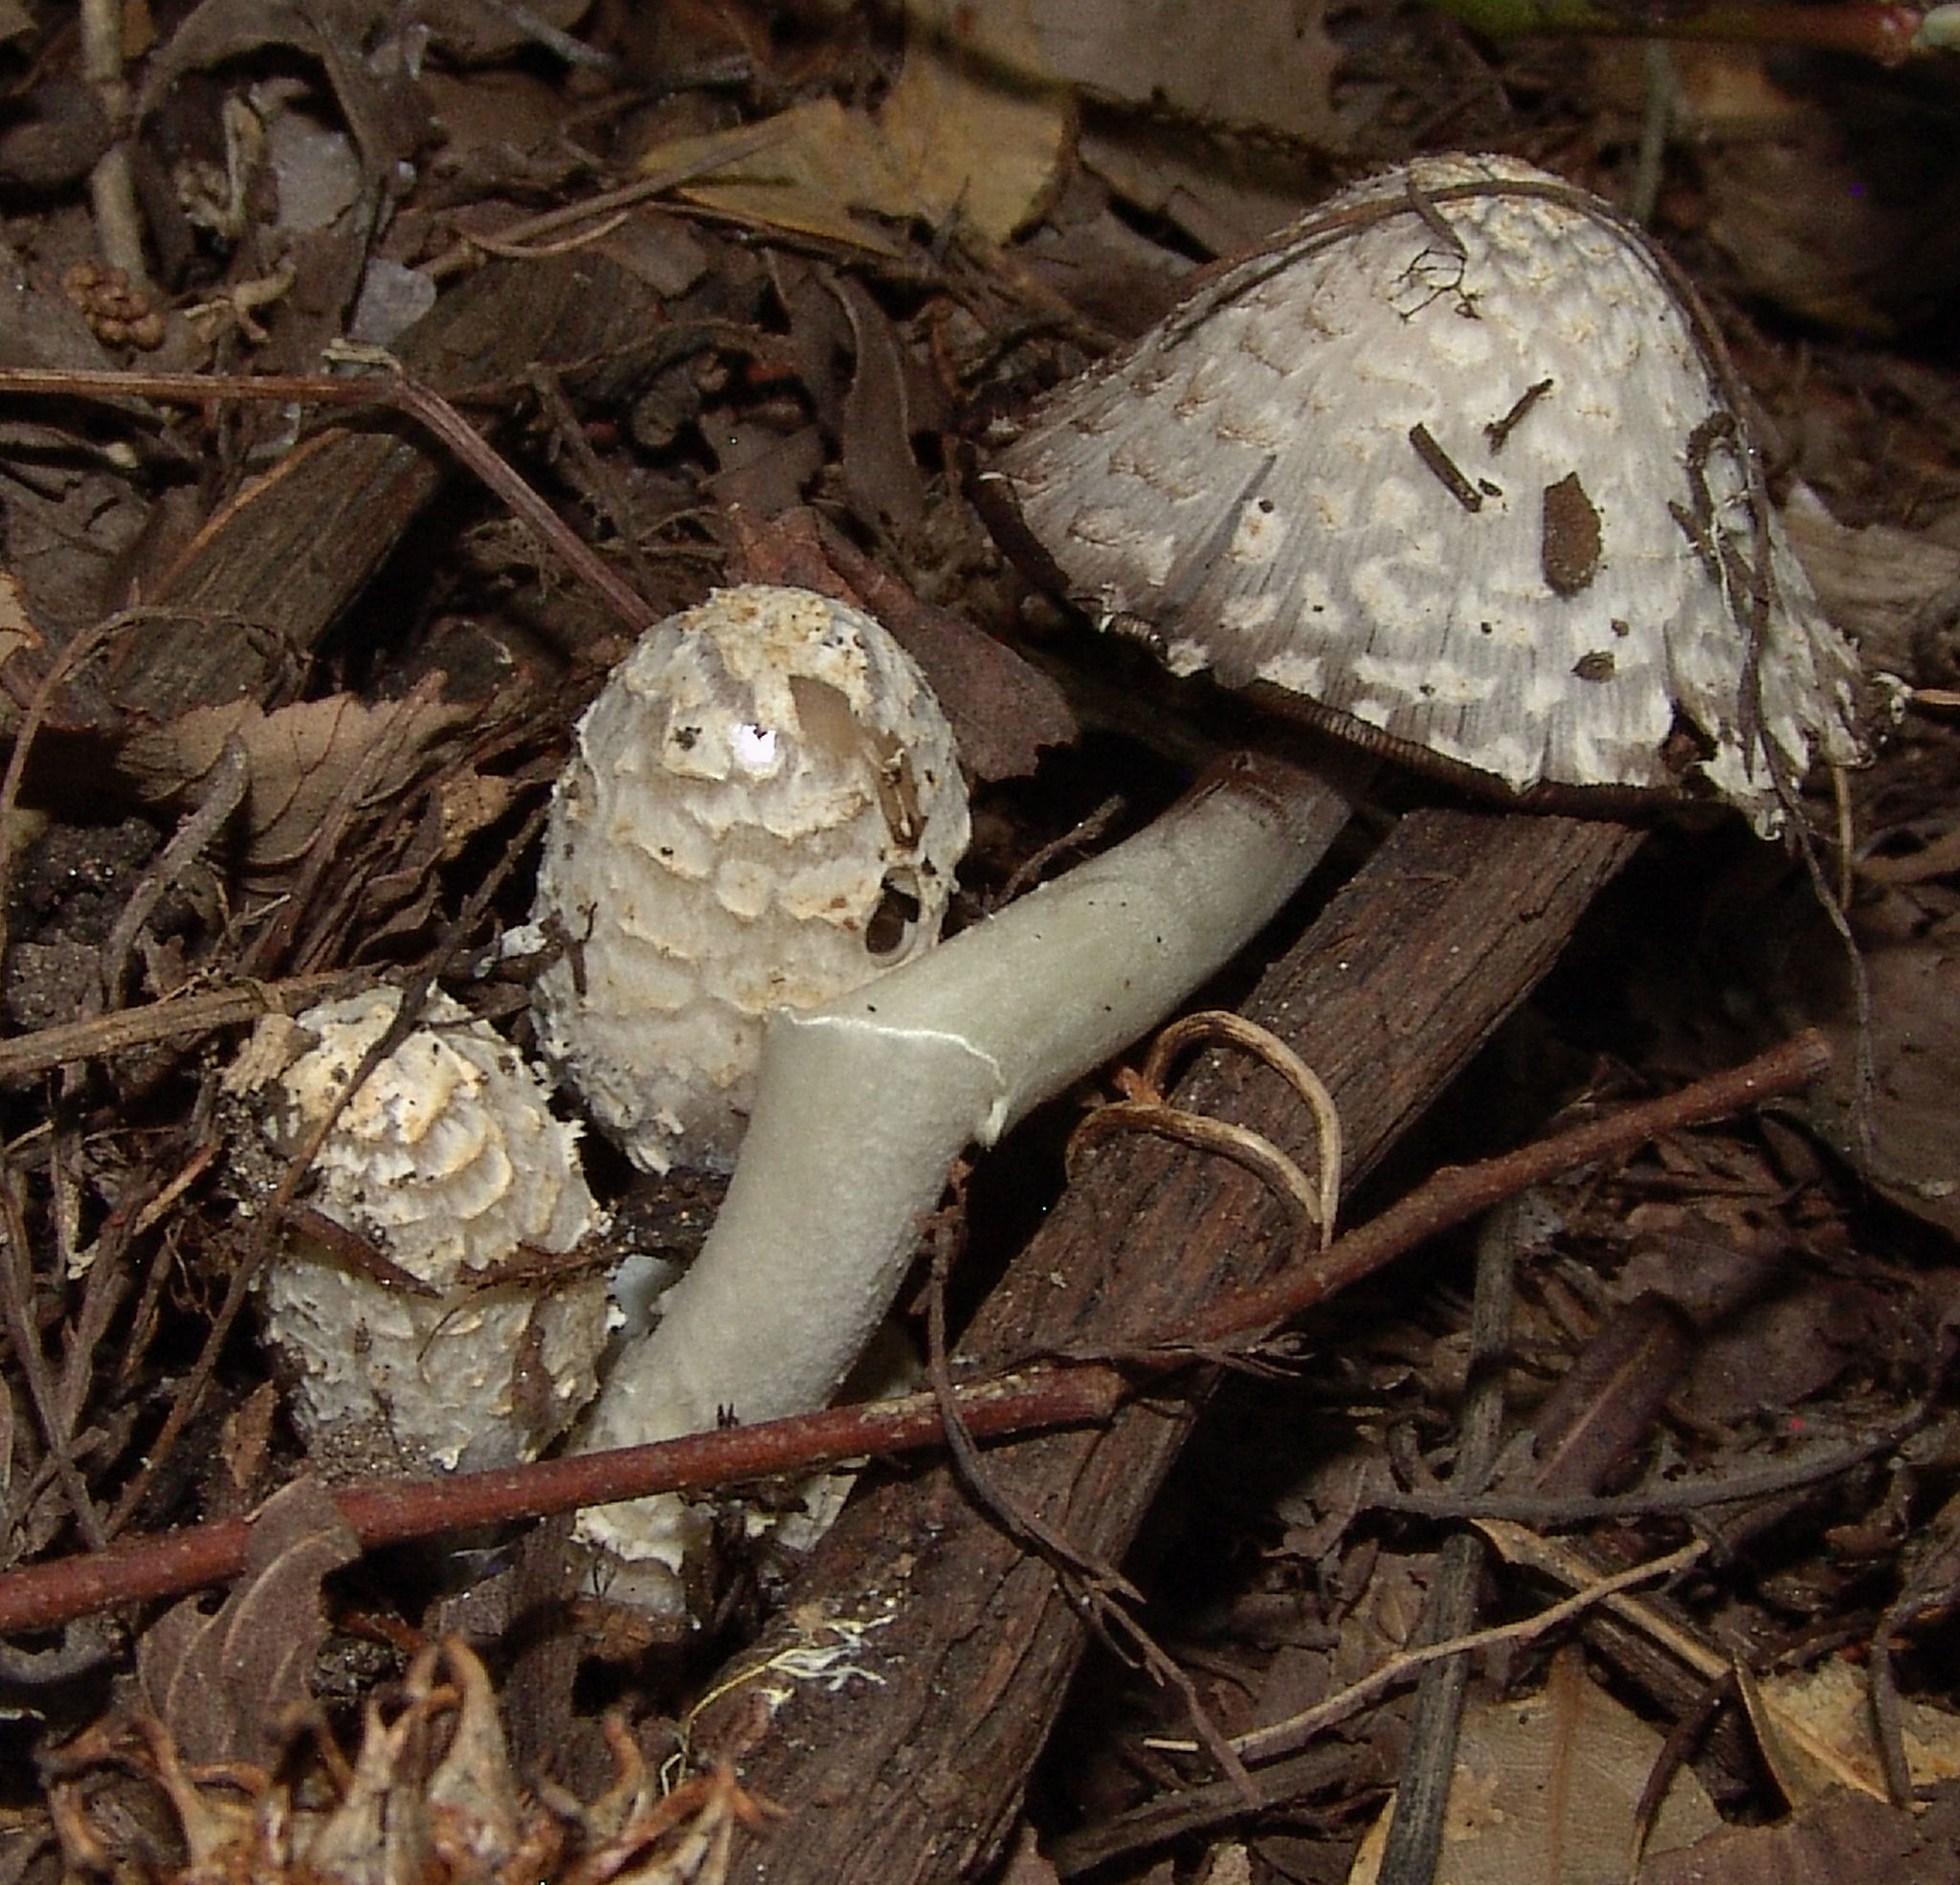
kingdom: Fungi
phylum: Basidiomycota
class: Agaricomycetes
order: Agaricales
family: Psathyrellaceae
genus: Coprinopsis
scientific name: Coprinopsis variegata
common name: Scaly ink cap
